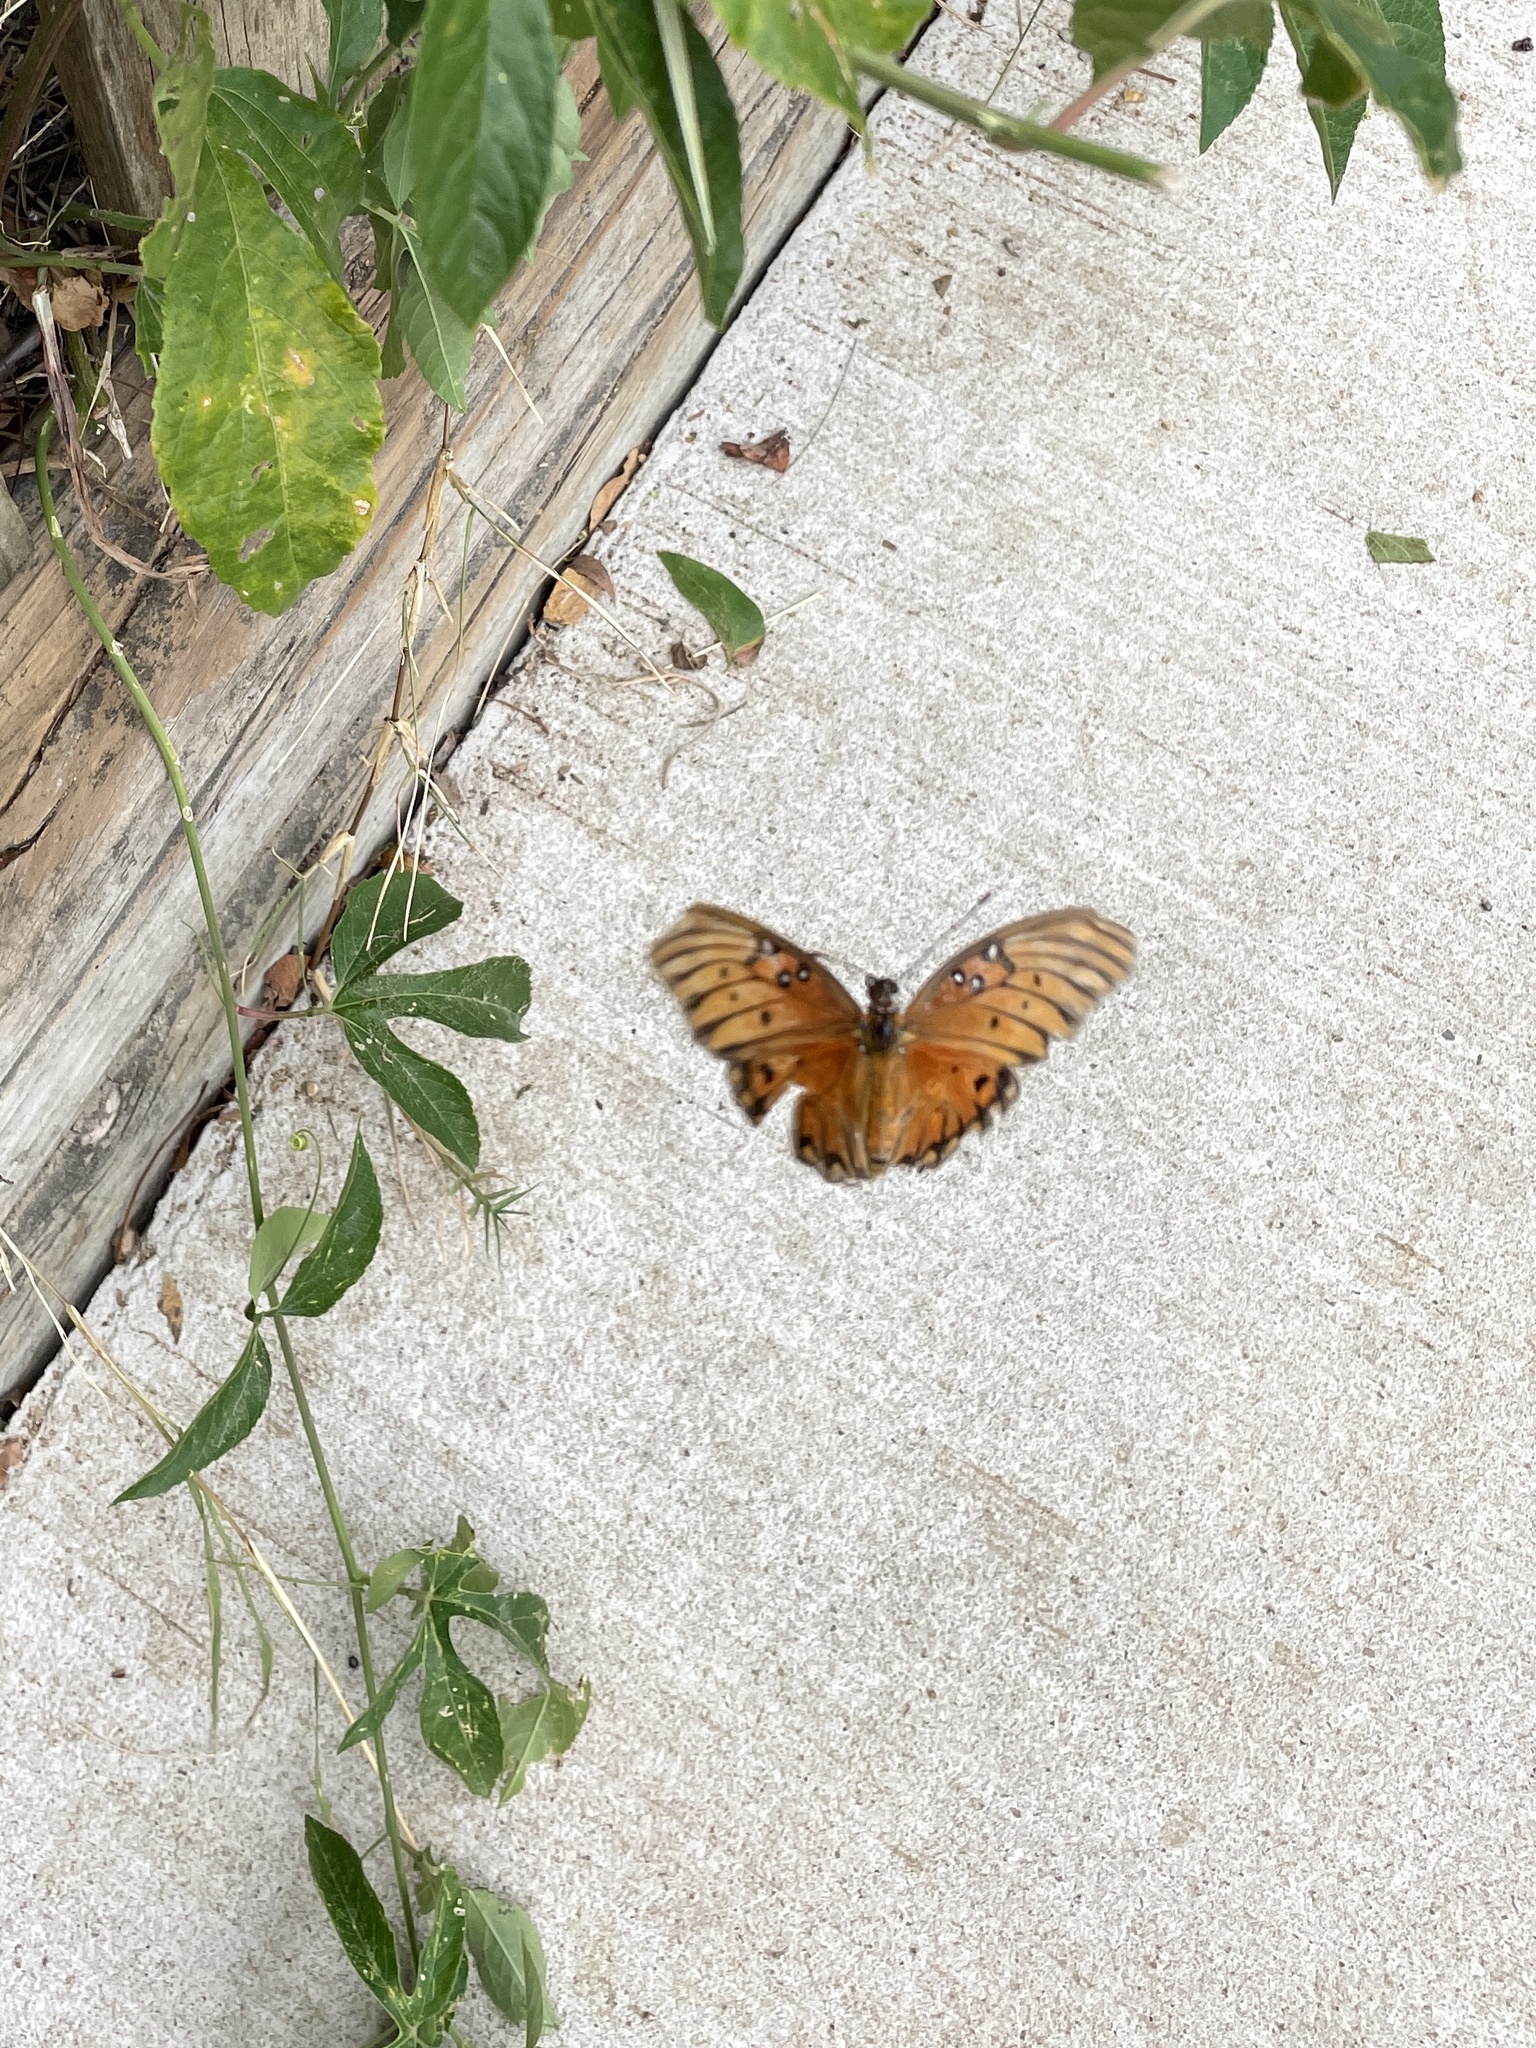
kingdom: Animalia
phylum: Arthropoda
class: Insecta
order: Lepidoptera
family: Nymphalidae
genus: Dione
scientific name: Dione vanillae
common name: Gulf fritillary
